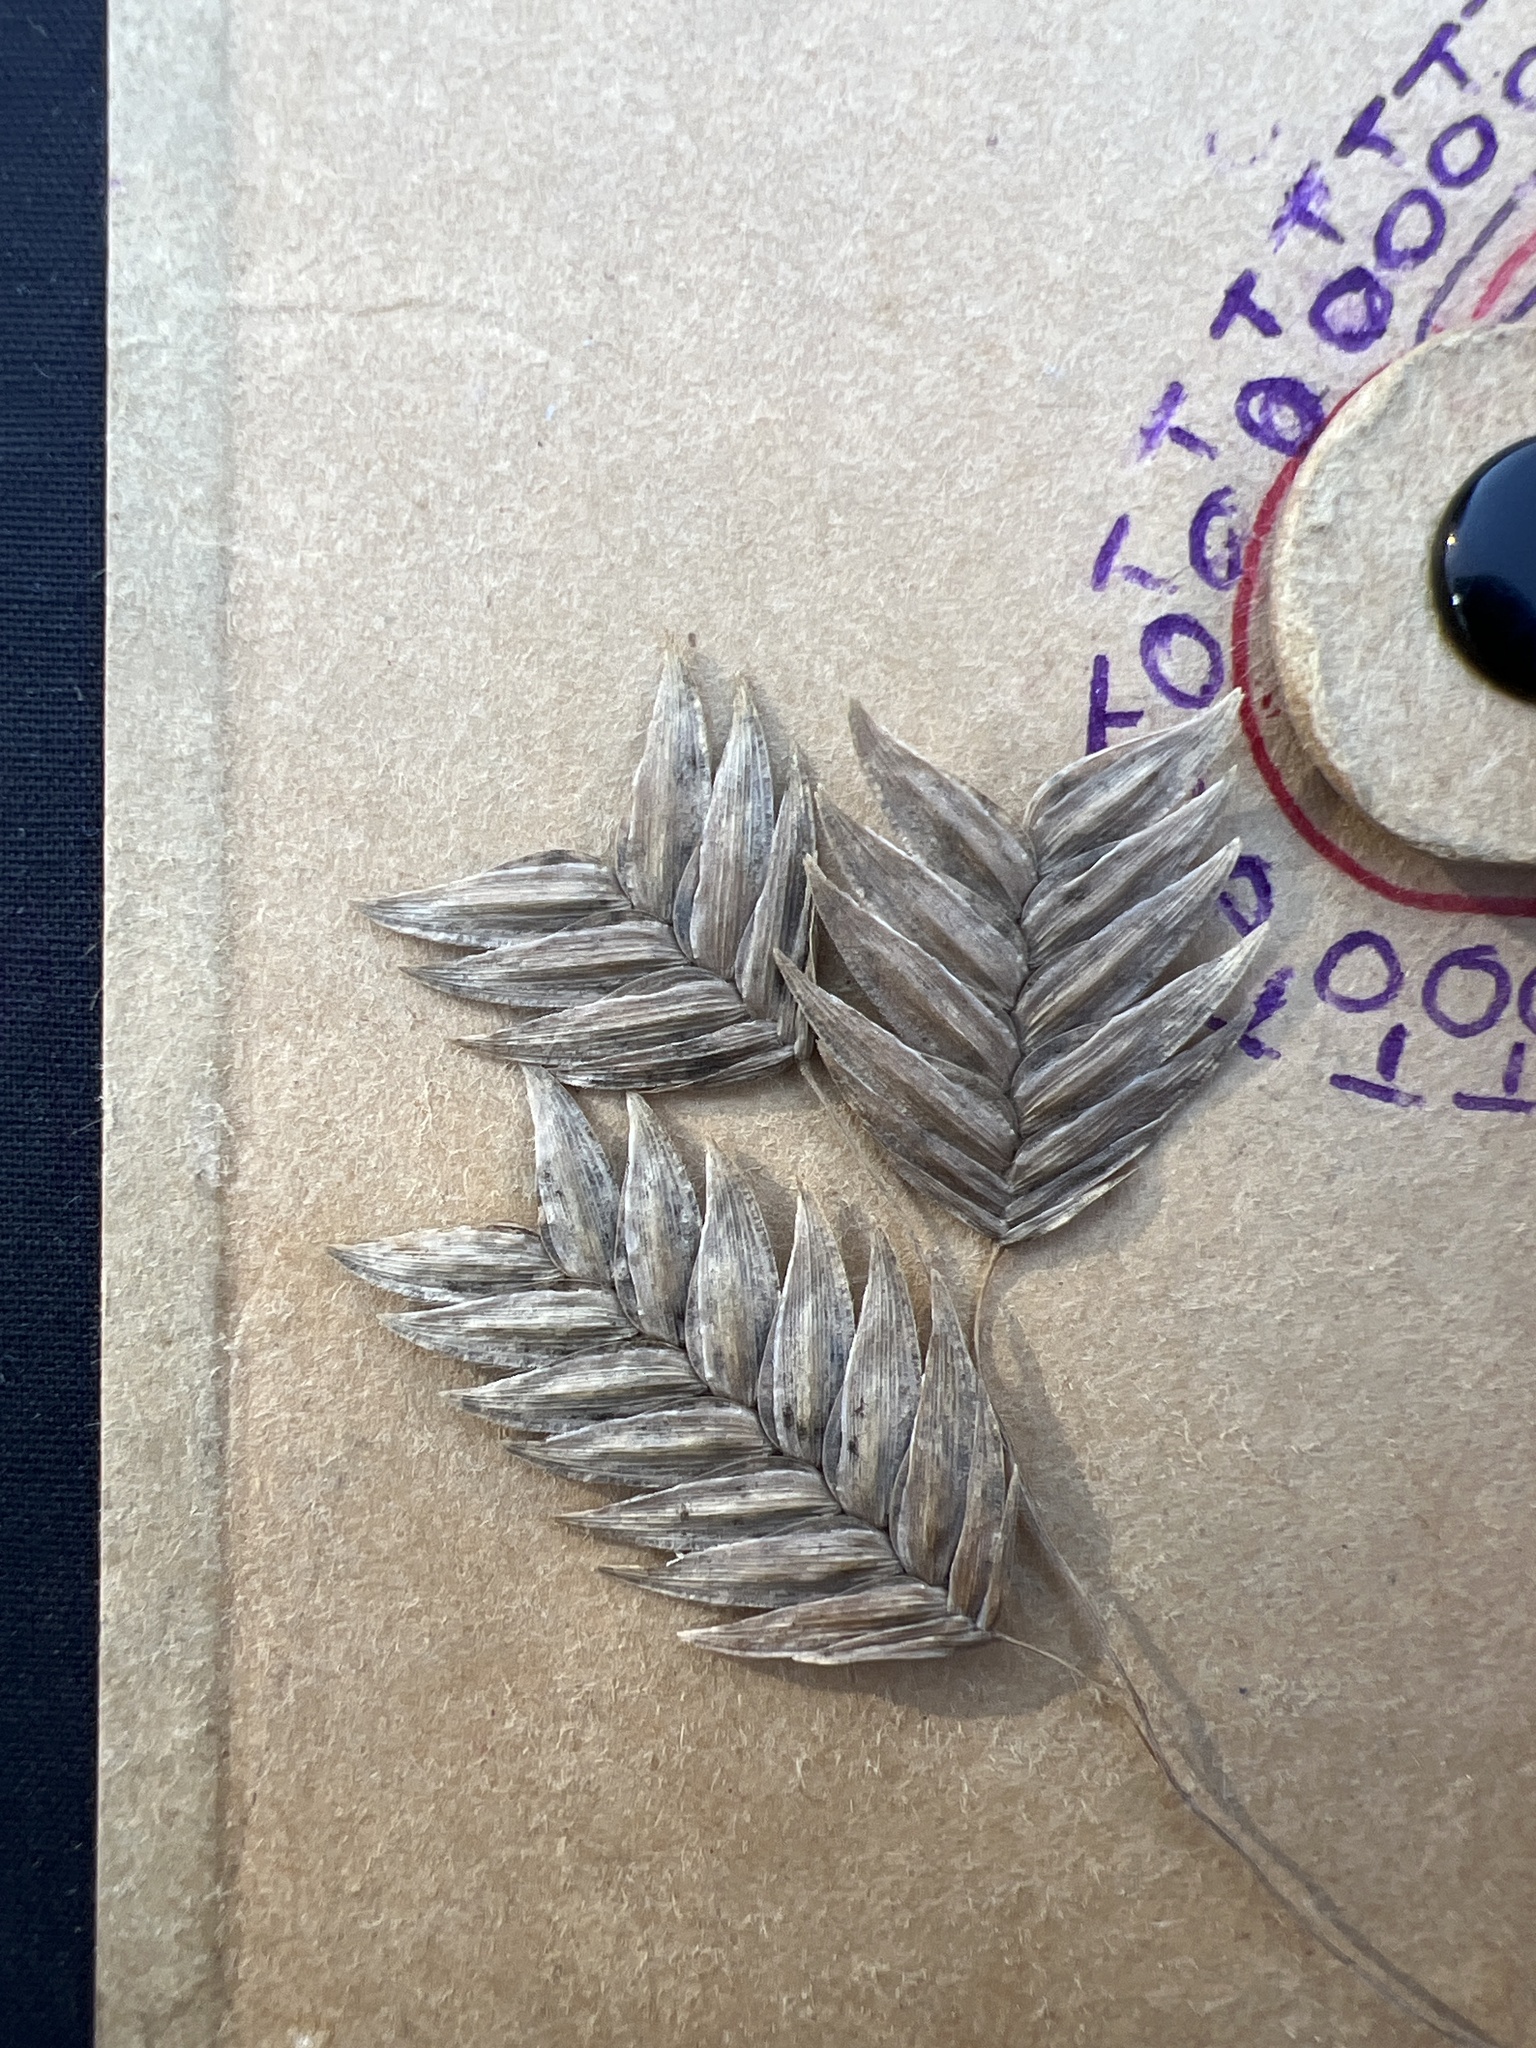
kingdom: Plantae
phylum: Tracheophyta
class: Liliopsida
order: Poales
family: Poaceae
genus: Chasmanthium
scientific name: Chasmanthium latifolium
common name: Broad-leaved chasmanthium
